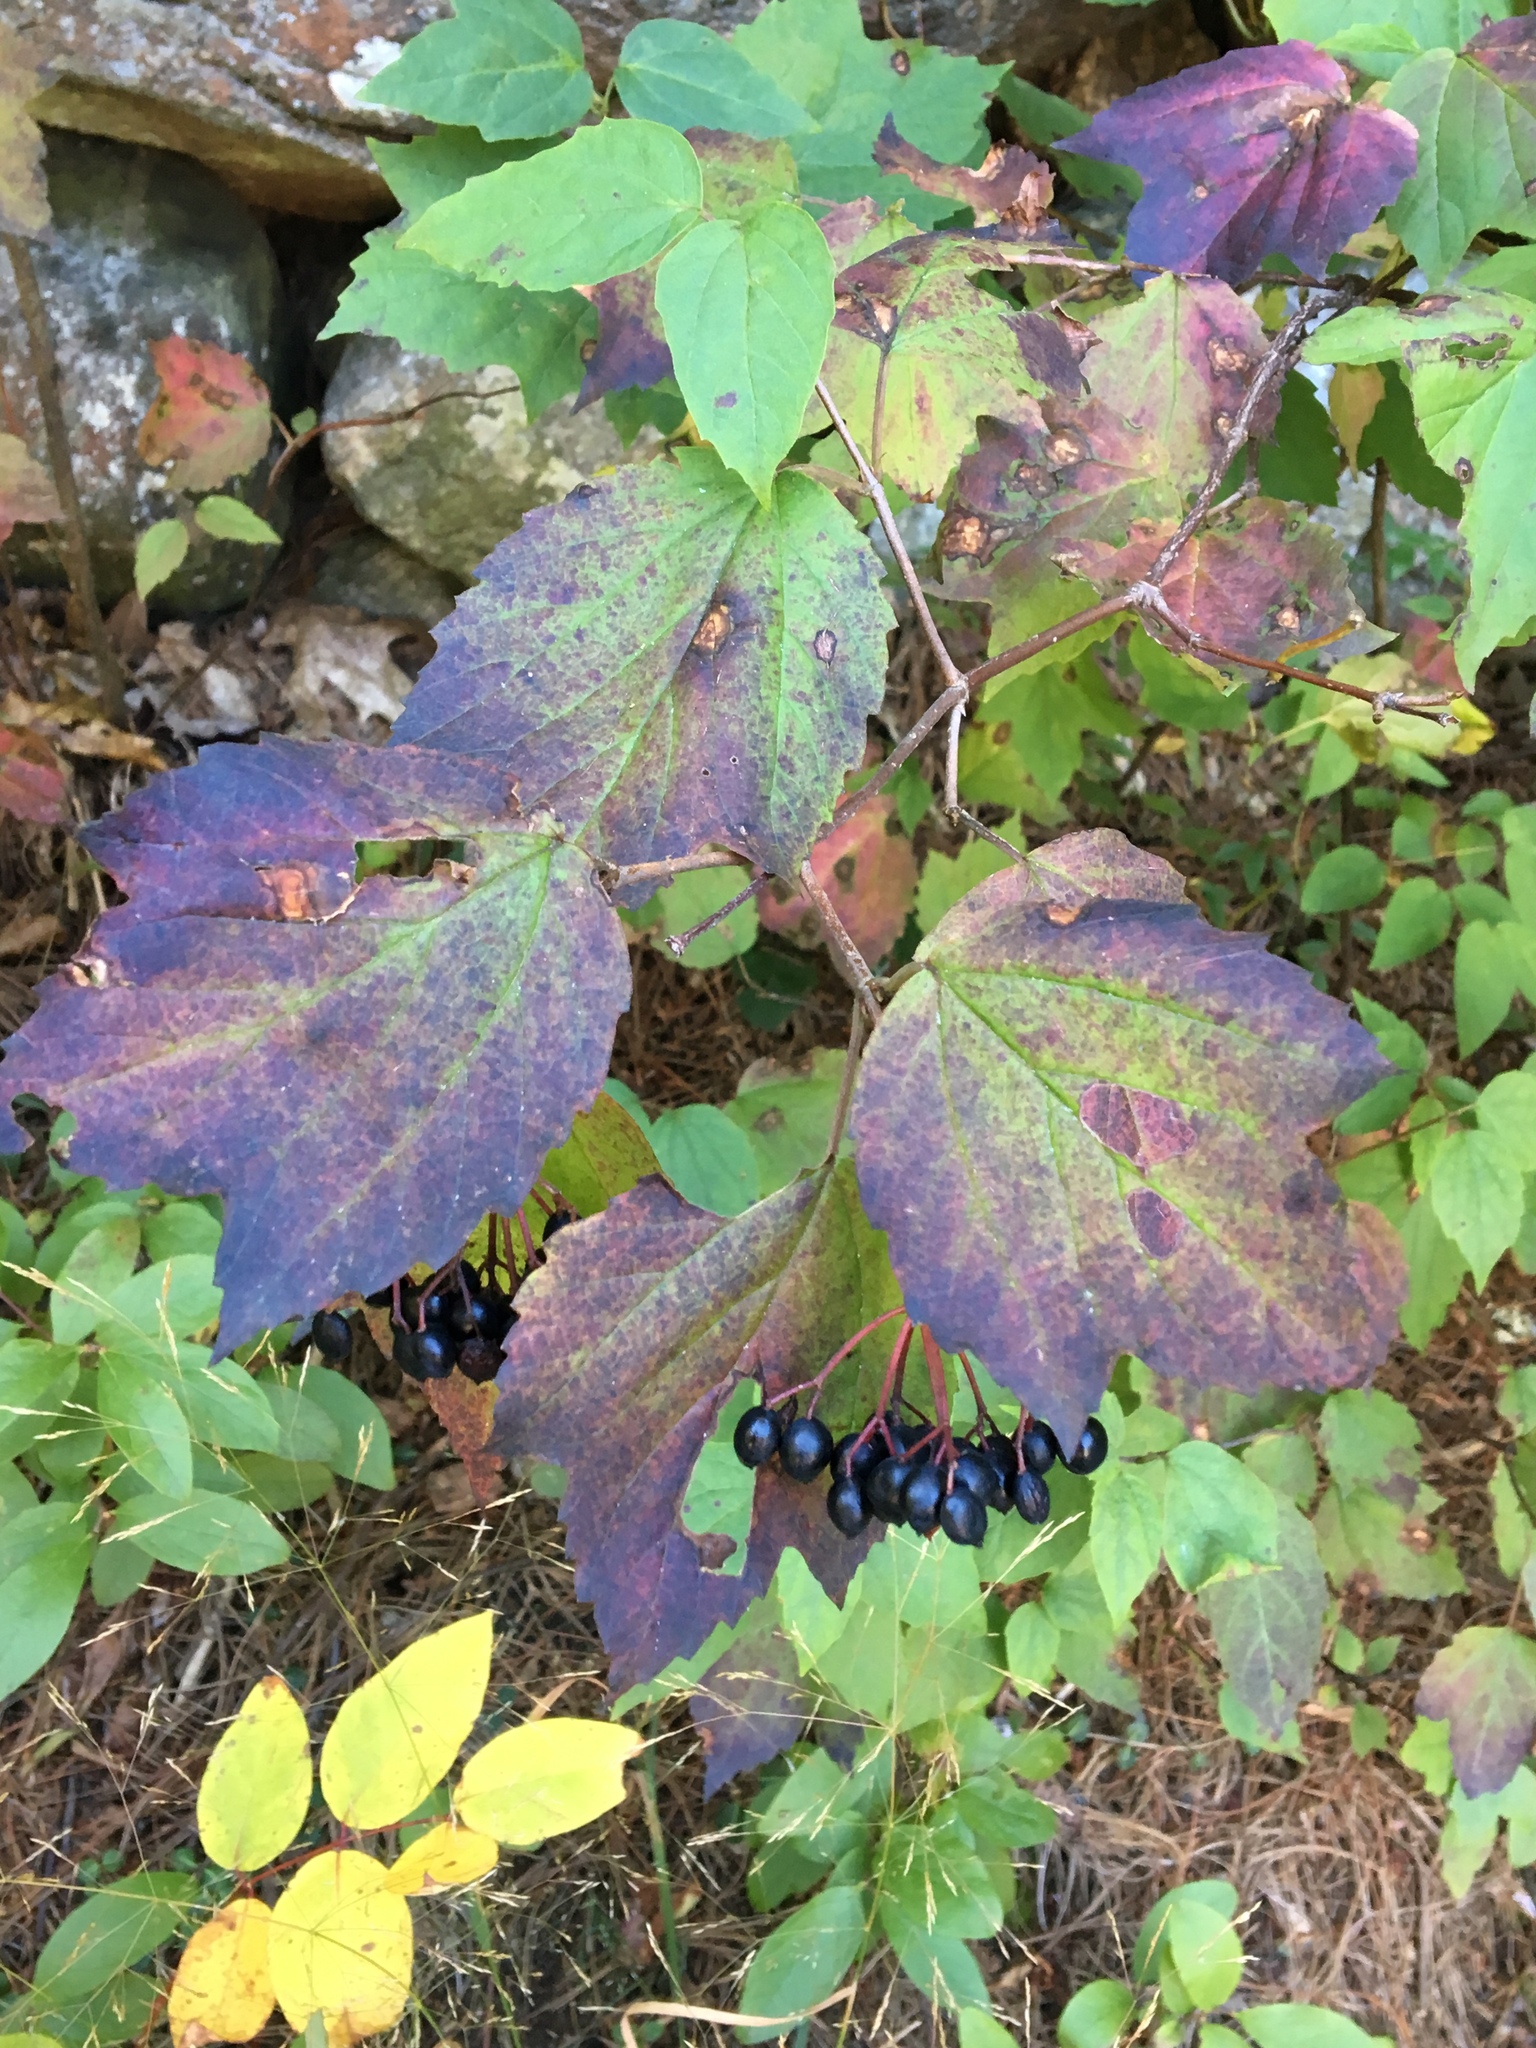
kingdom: Plantae
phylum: Tracheophyta
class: Magnoliopsida
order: Dipsacales
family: Viburnaceae
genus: Viburnum
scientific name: Viburnum acerifolium
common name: Dockmackie
